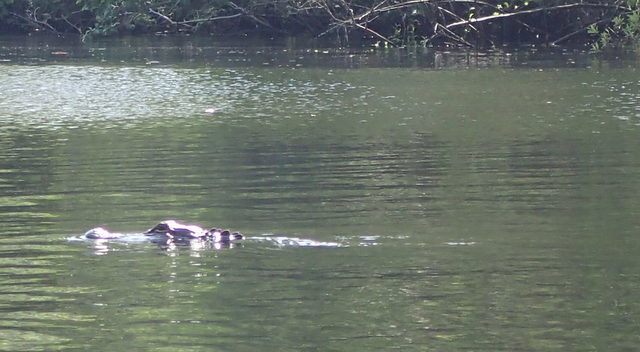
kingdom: Animalia
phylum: Chordata
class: Crocodylia
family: Alligatoridae
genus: Alligator
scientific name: Alligator mississippiensis
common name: American alligator
